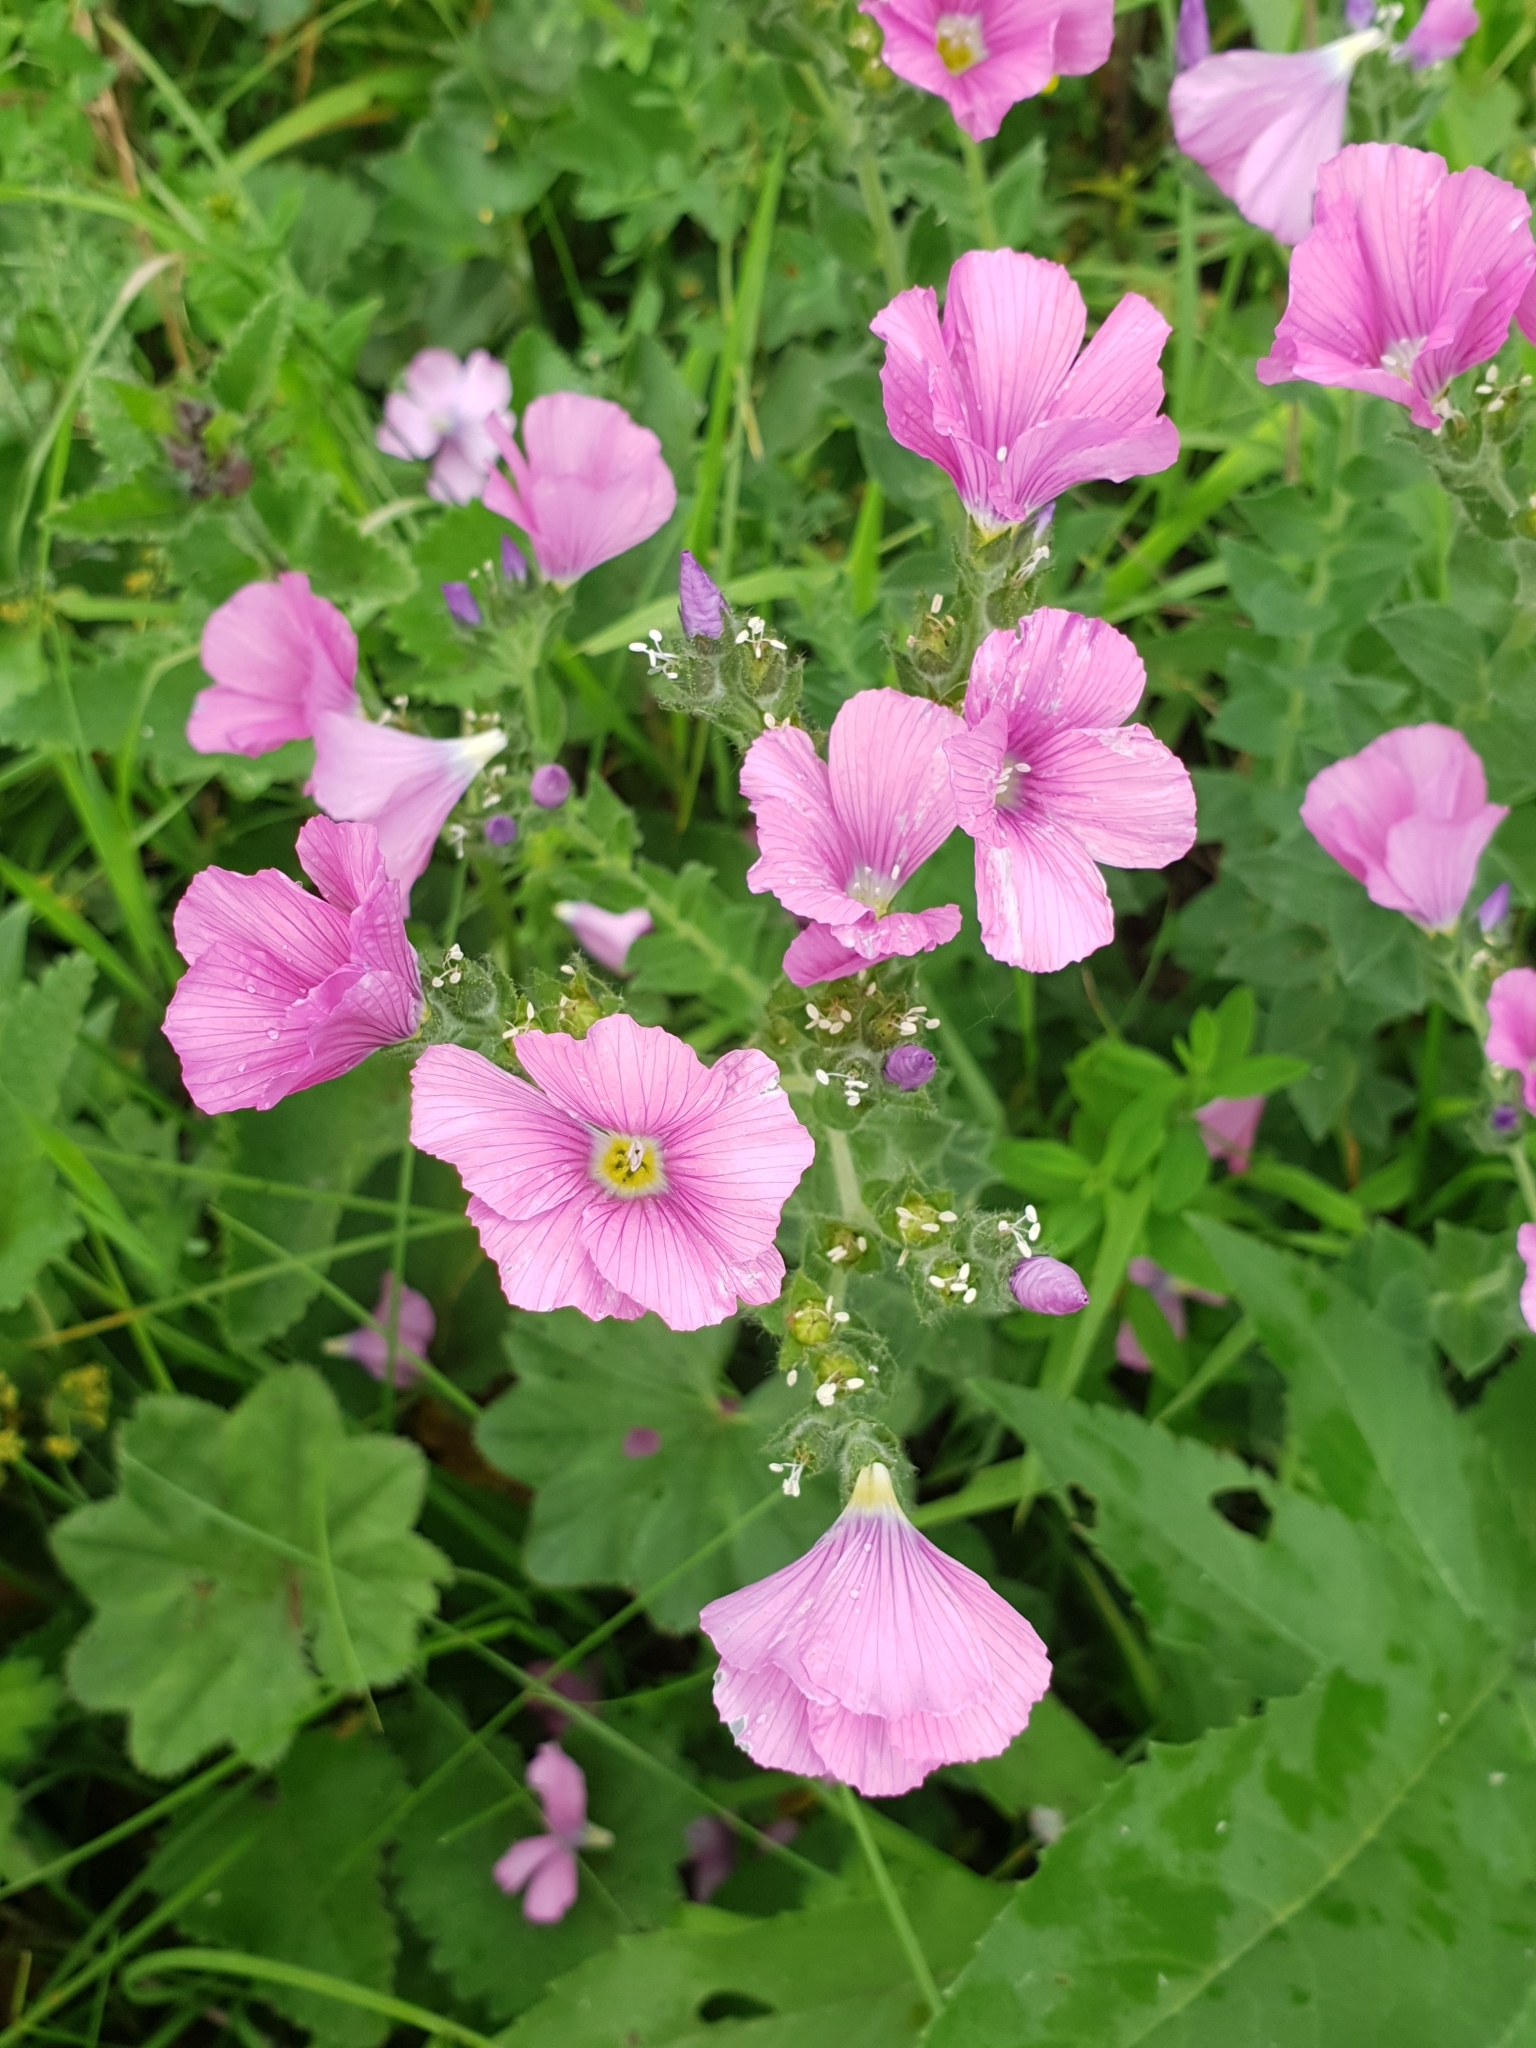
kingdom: Plantae
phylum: Tracheophyta
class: Magnoliopsida
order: Malpighiales
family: Linaceae
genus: Linum
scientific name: Linum hypericifolium
